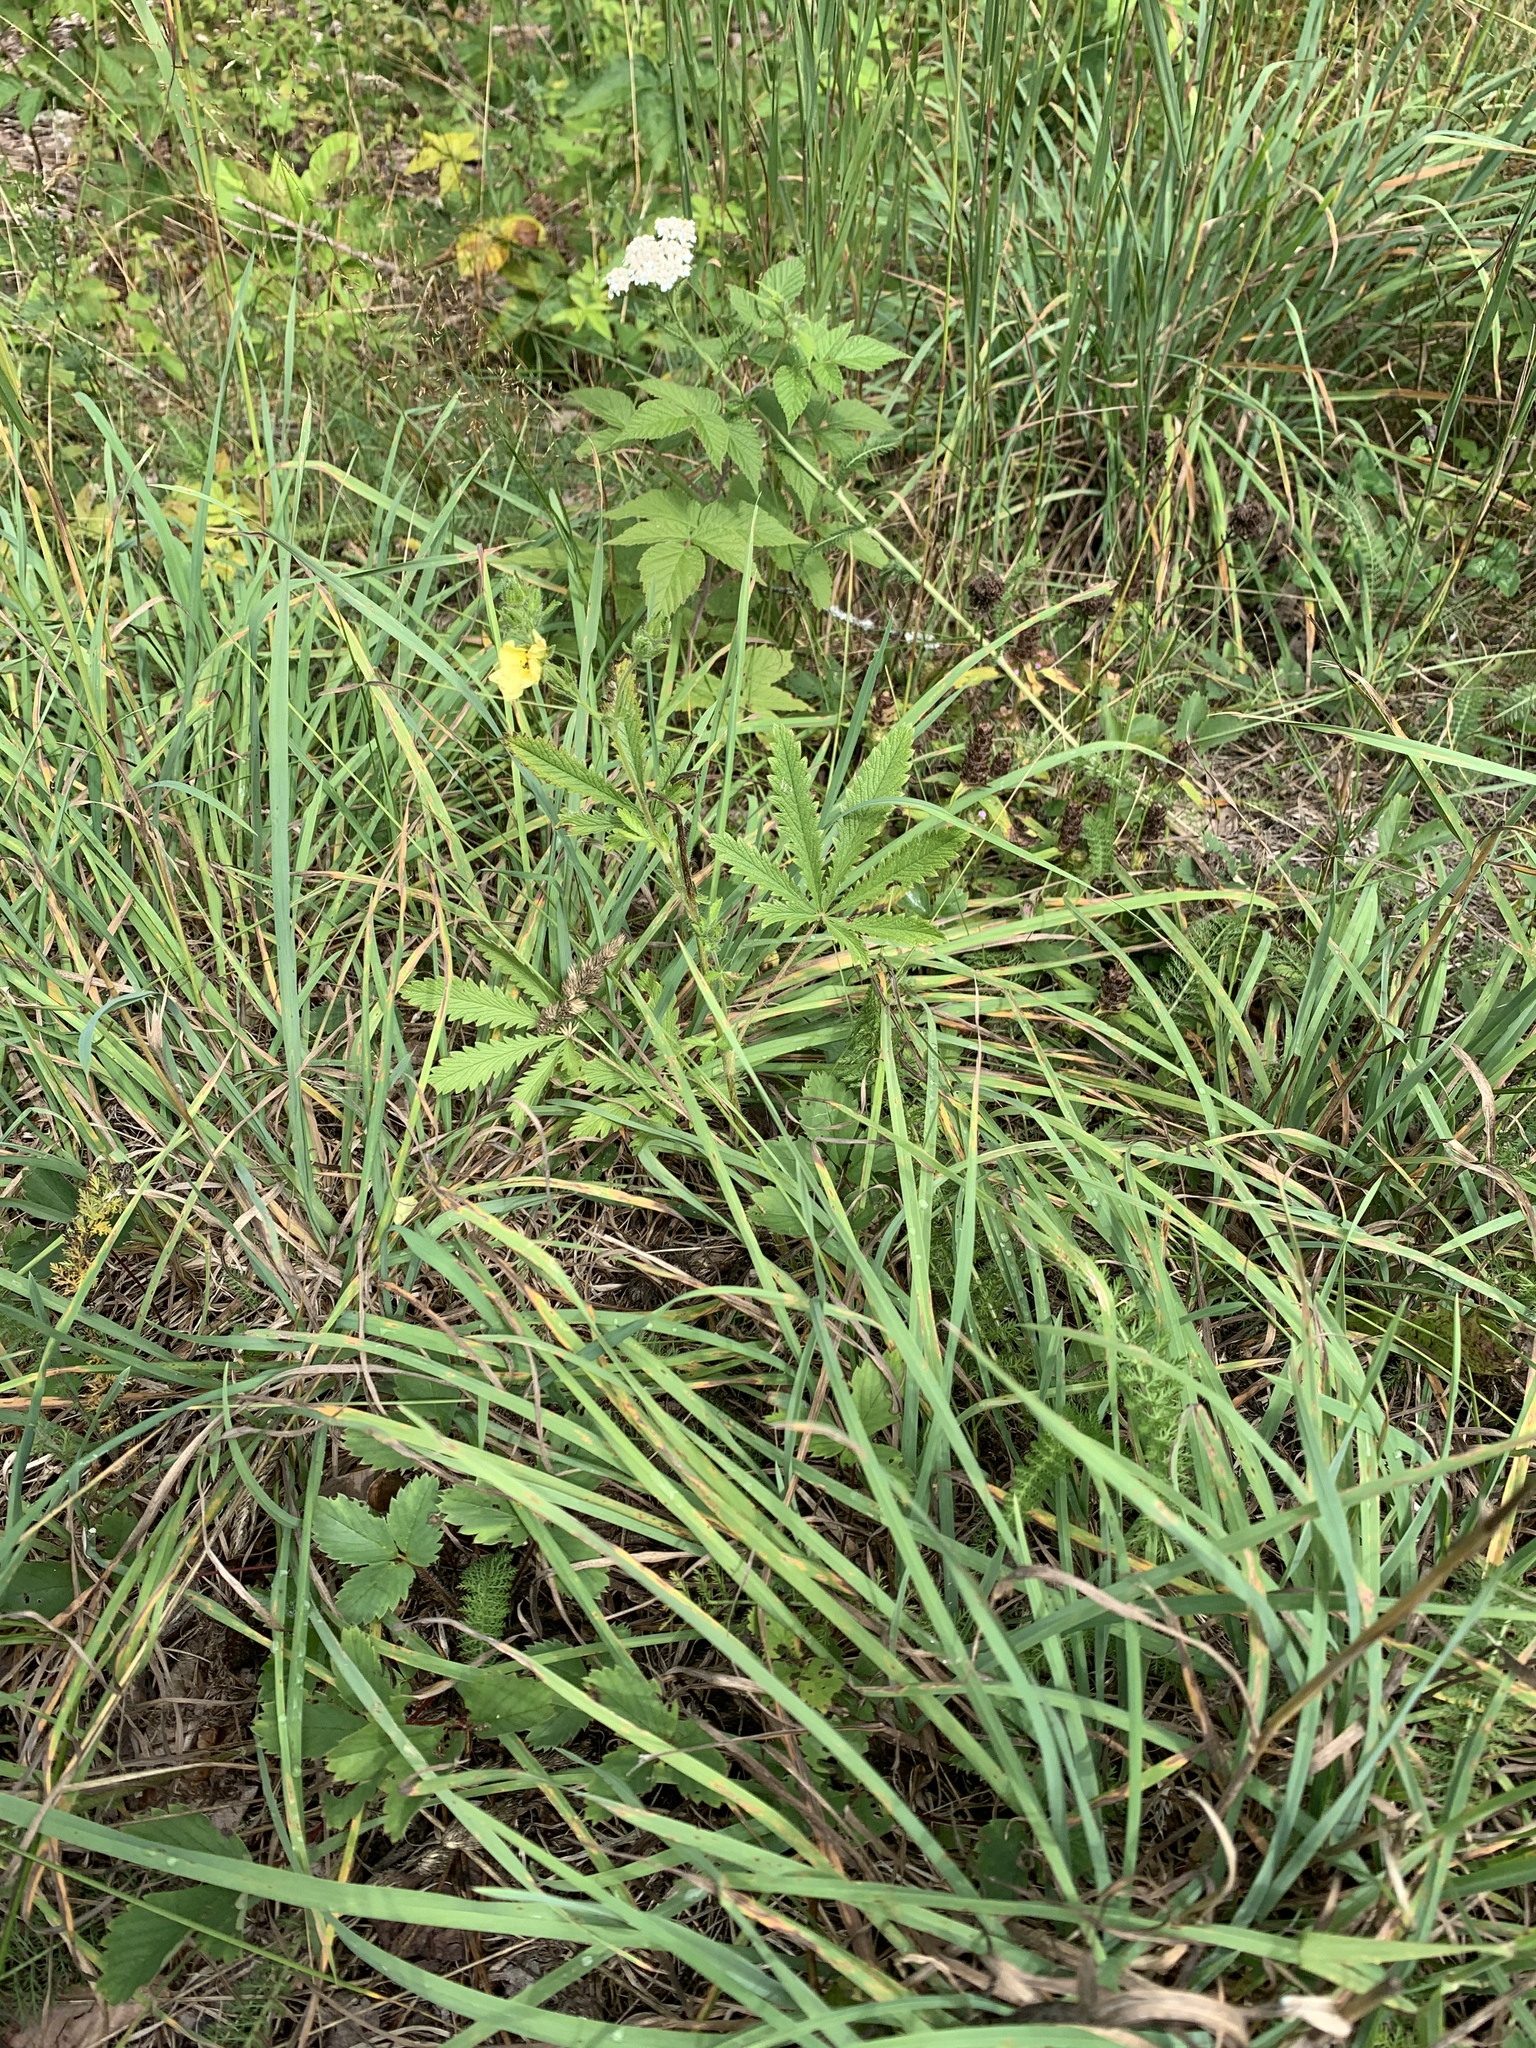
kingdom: Plantae
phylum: Tracheophyta
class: Magnoliopsida
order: Rosales
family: Rosaceae
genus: Potentilla
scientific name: Potentilla recta
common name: Sulphur cinquefoil
